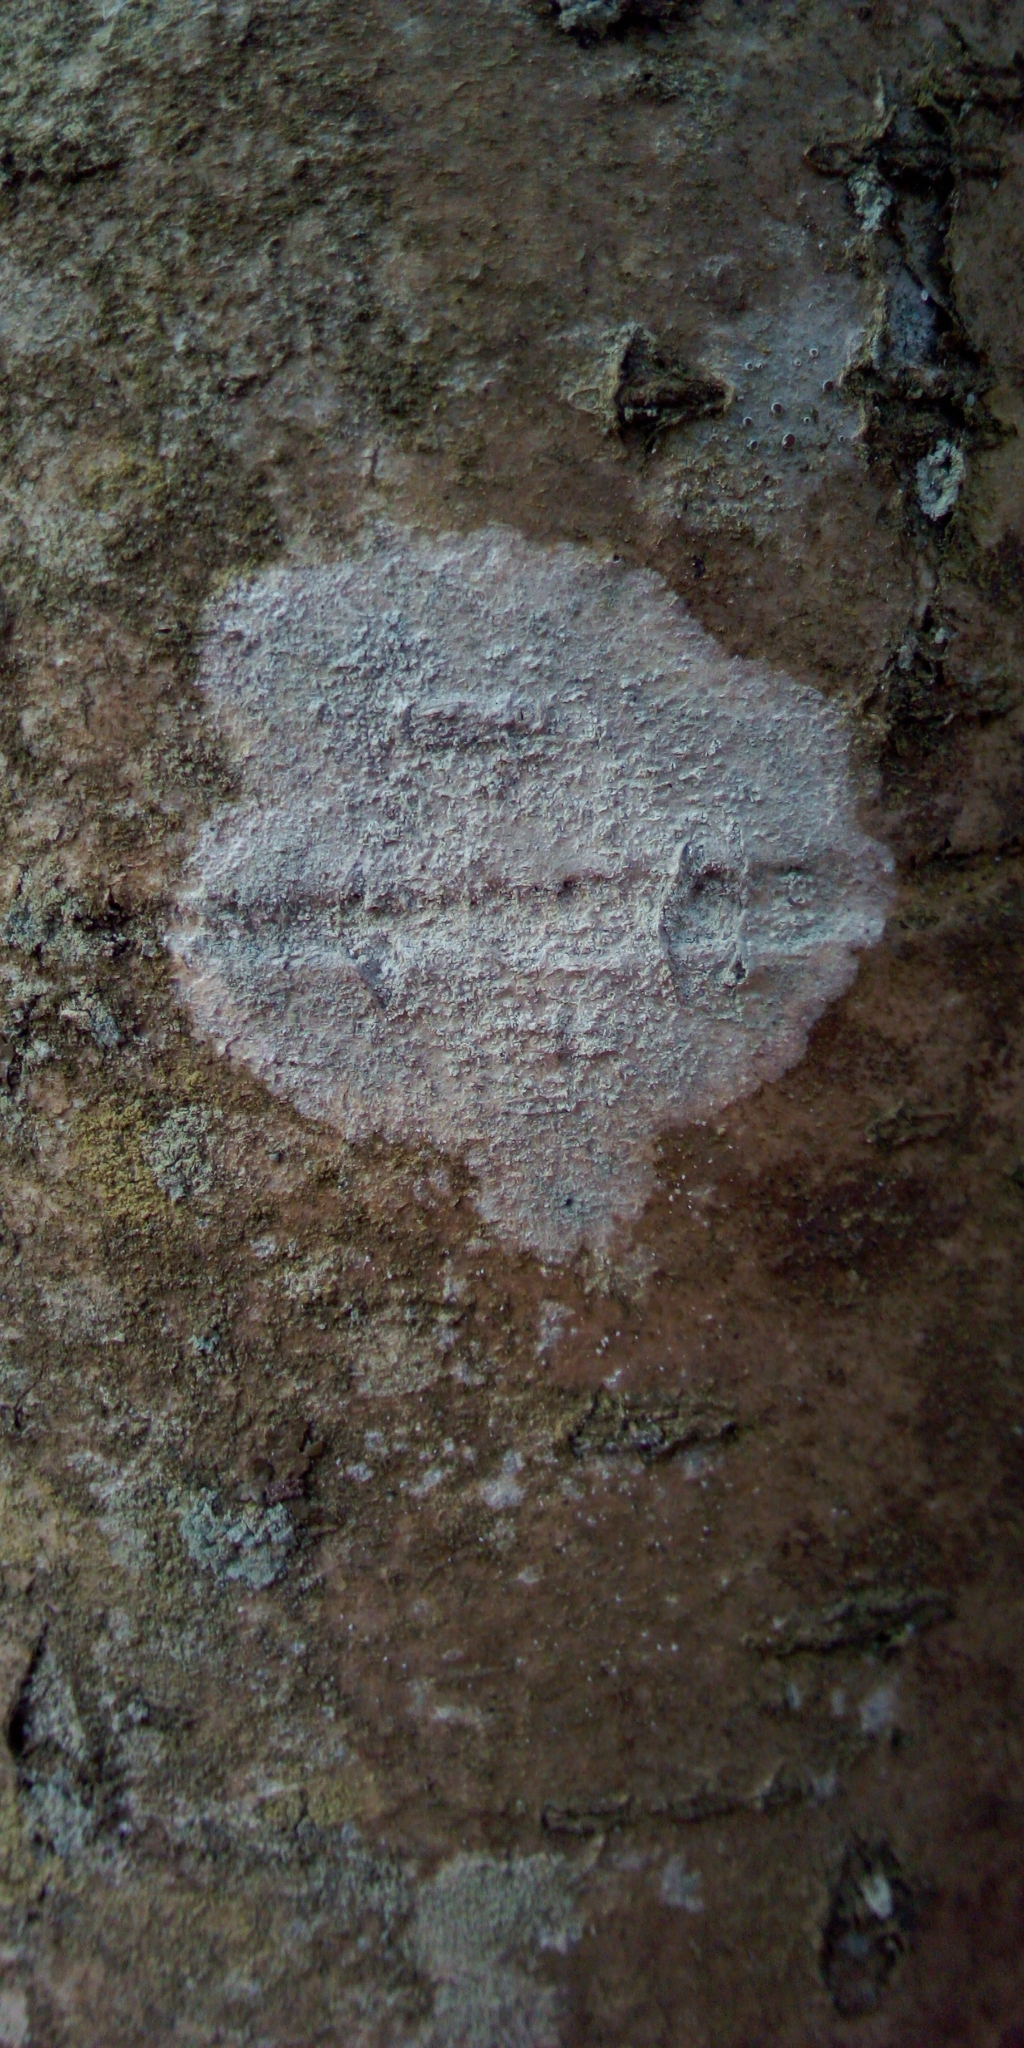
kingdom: Fungi
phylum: Ascomycota
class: Lecanoromycetes
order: Ostropales
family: Phlyctidaceae
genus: Phlyctis
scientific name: Phlyctis argena
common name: Whitewash lichen
